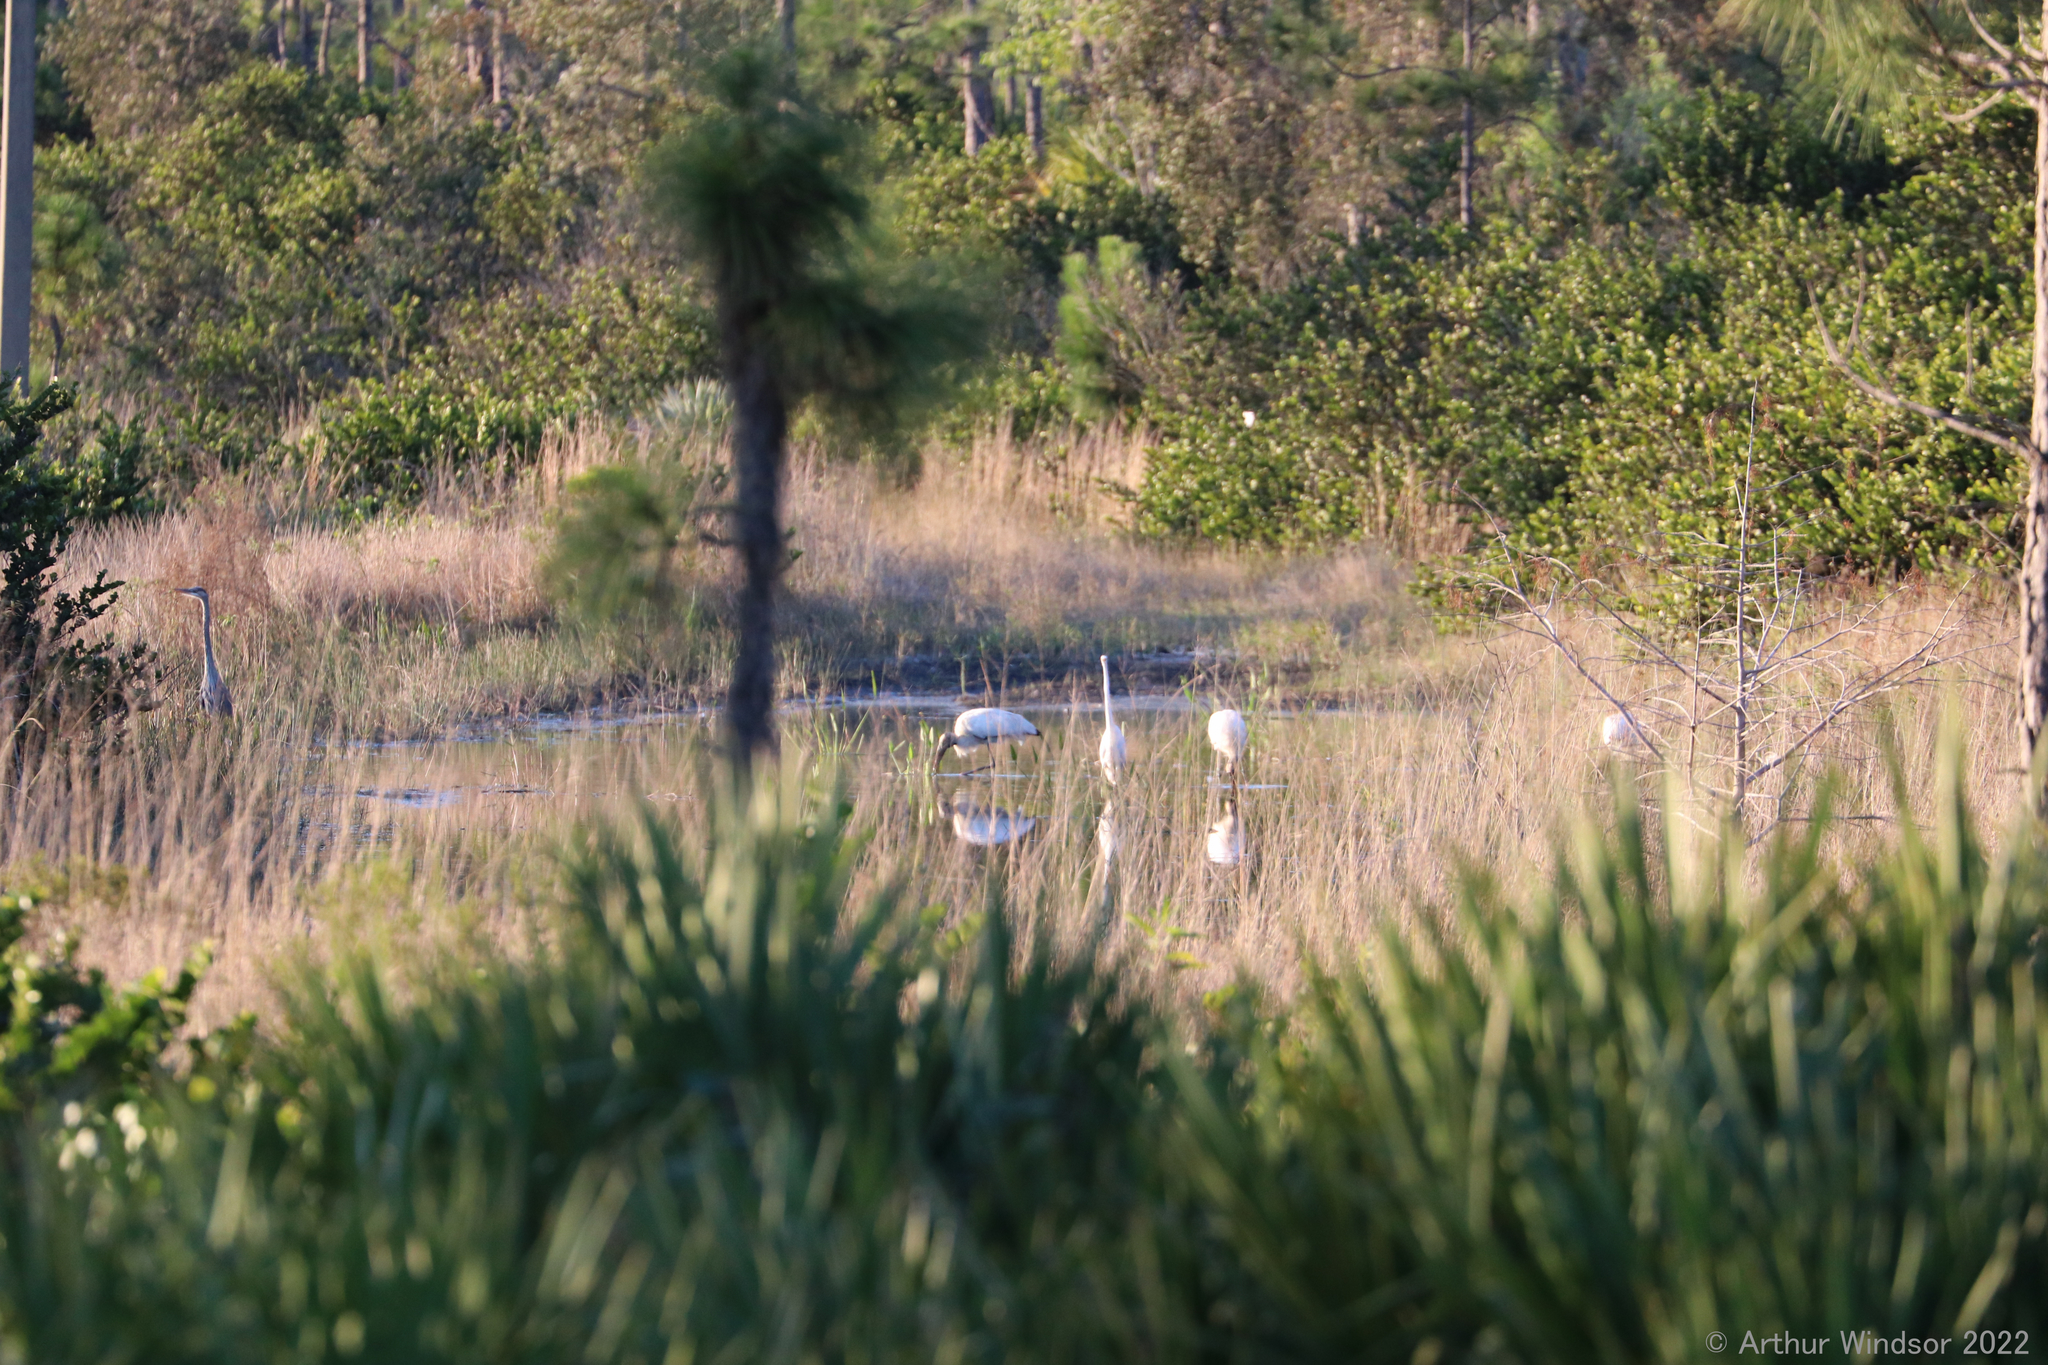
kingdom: Animalia
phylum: Chordata
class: Aves
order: Ciconiiformes
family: Ciconiidae
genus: Mycteria
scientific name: Mycteria americana
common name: Wood stork
